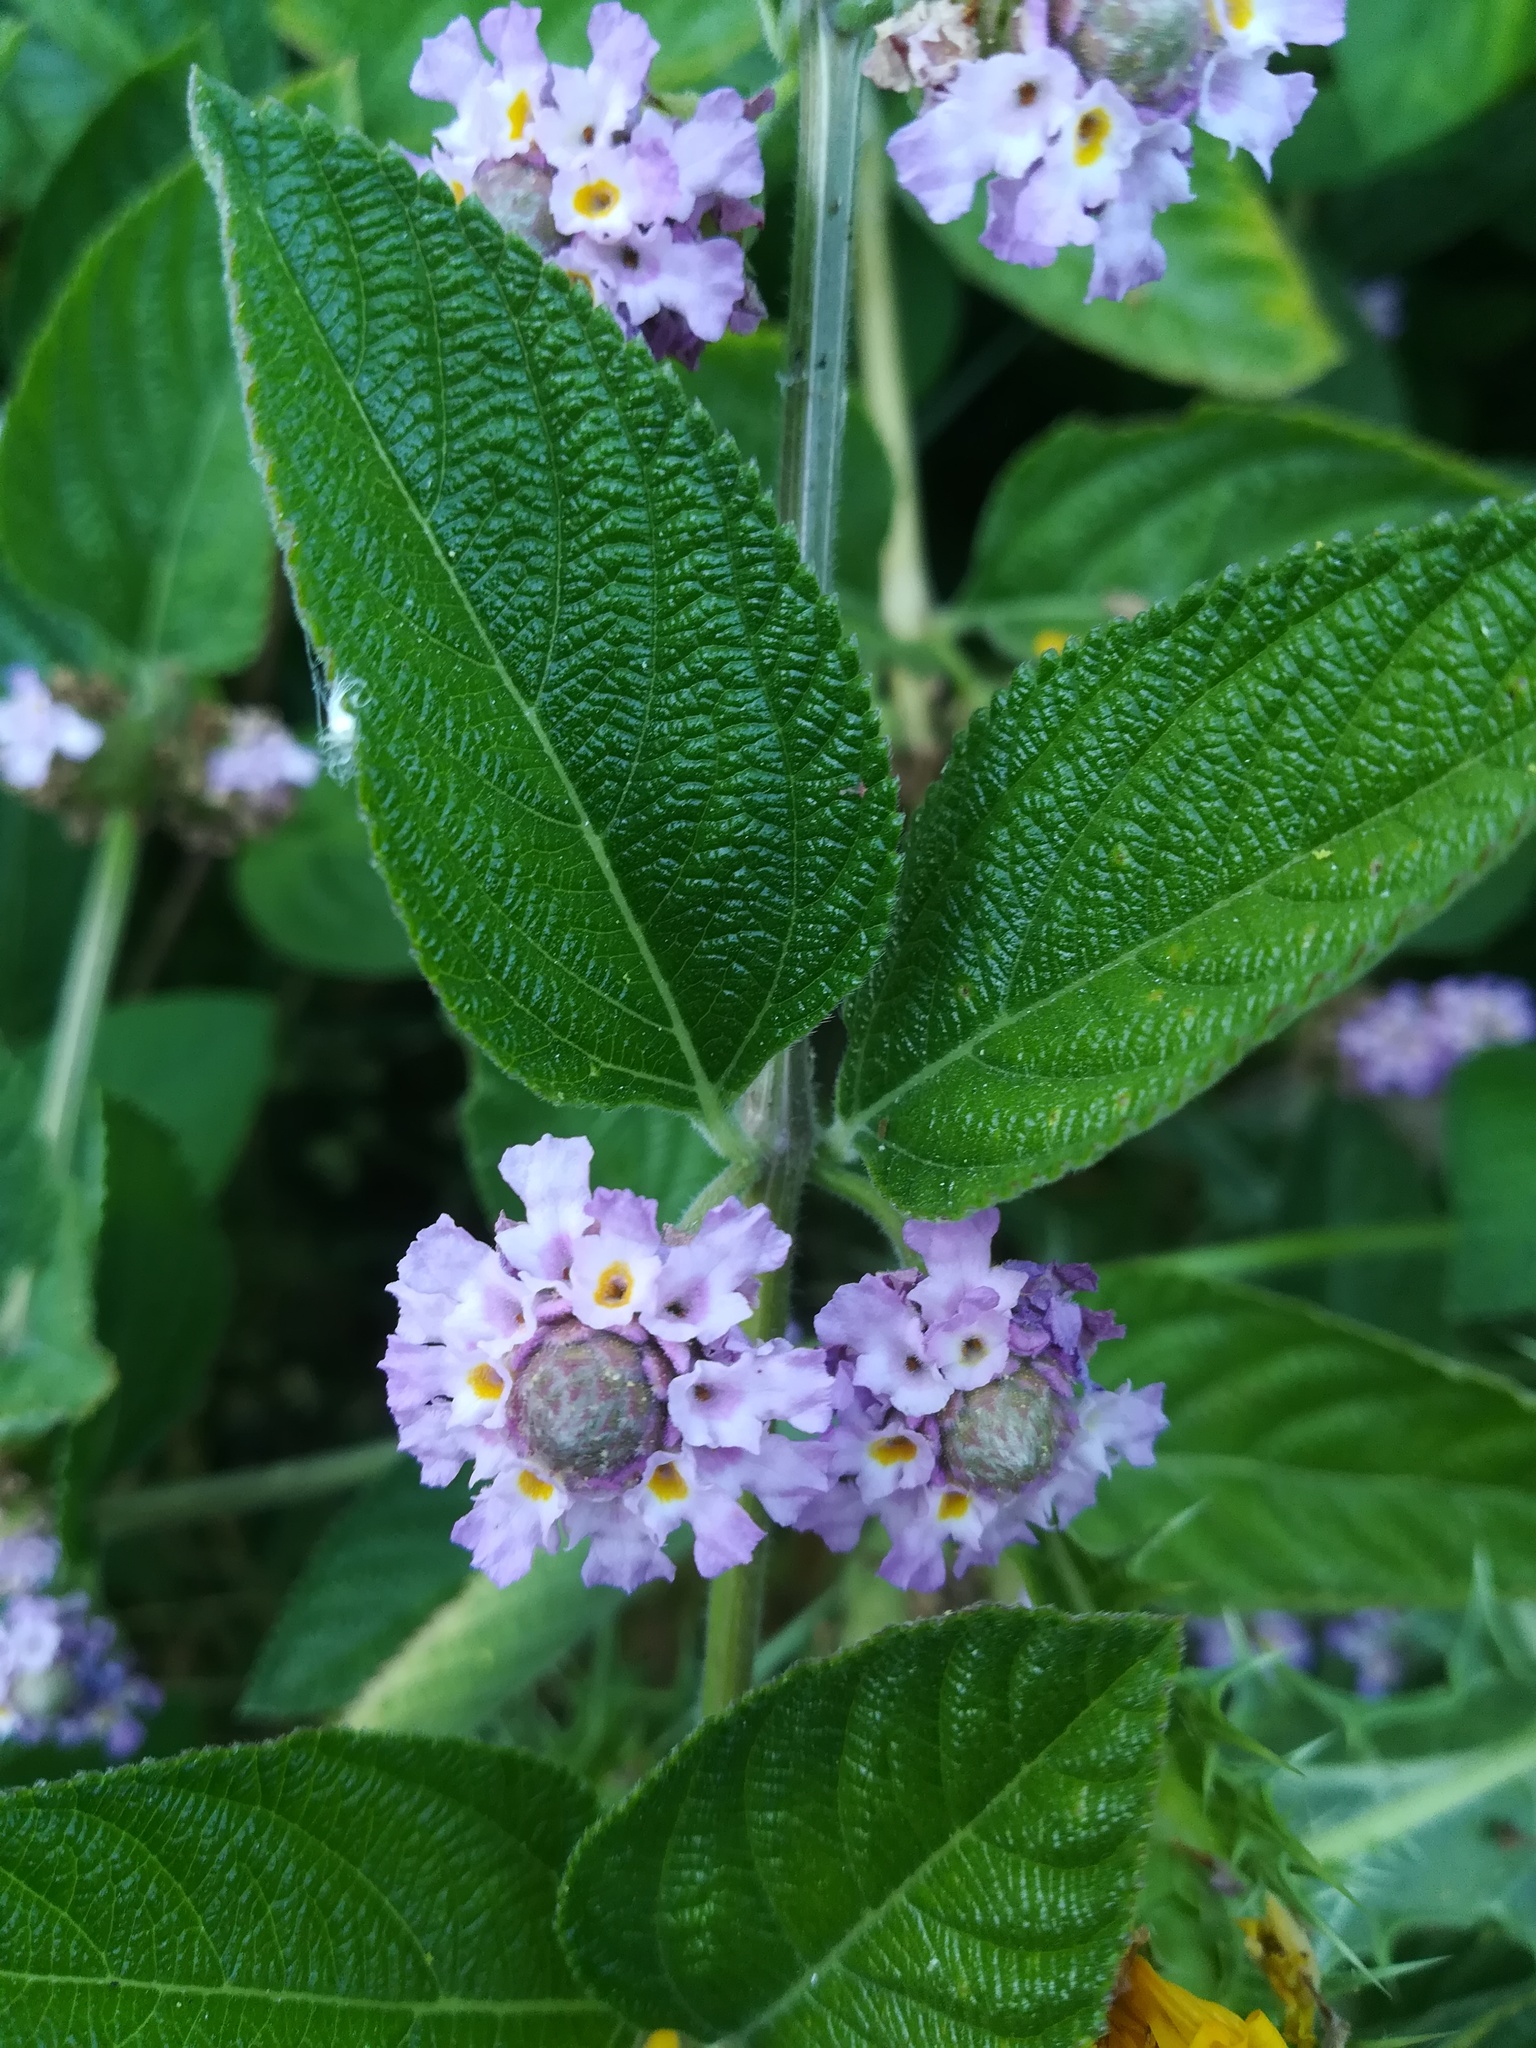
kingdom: Plantae
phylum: Tracheophyta
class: Magnoliopsida
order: Lamiales
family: Verbenaceae
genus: Lippia
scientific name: Lippia alba
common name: Bushy matgrass
